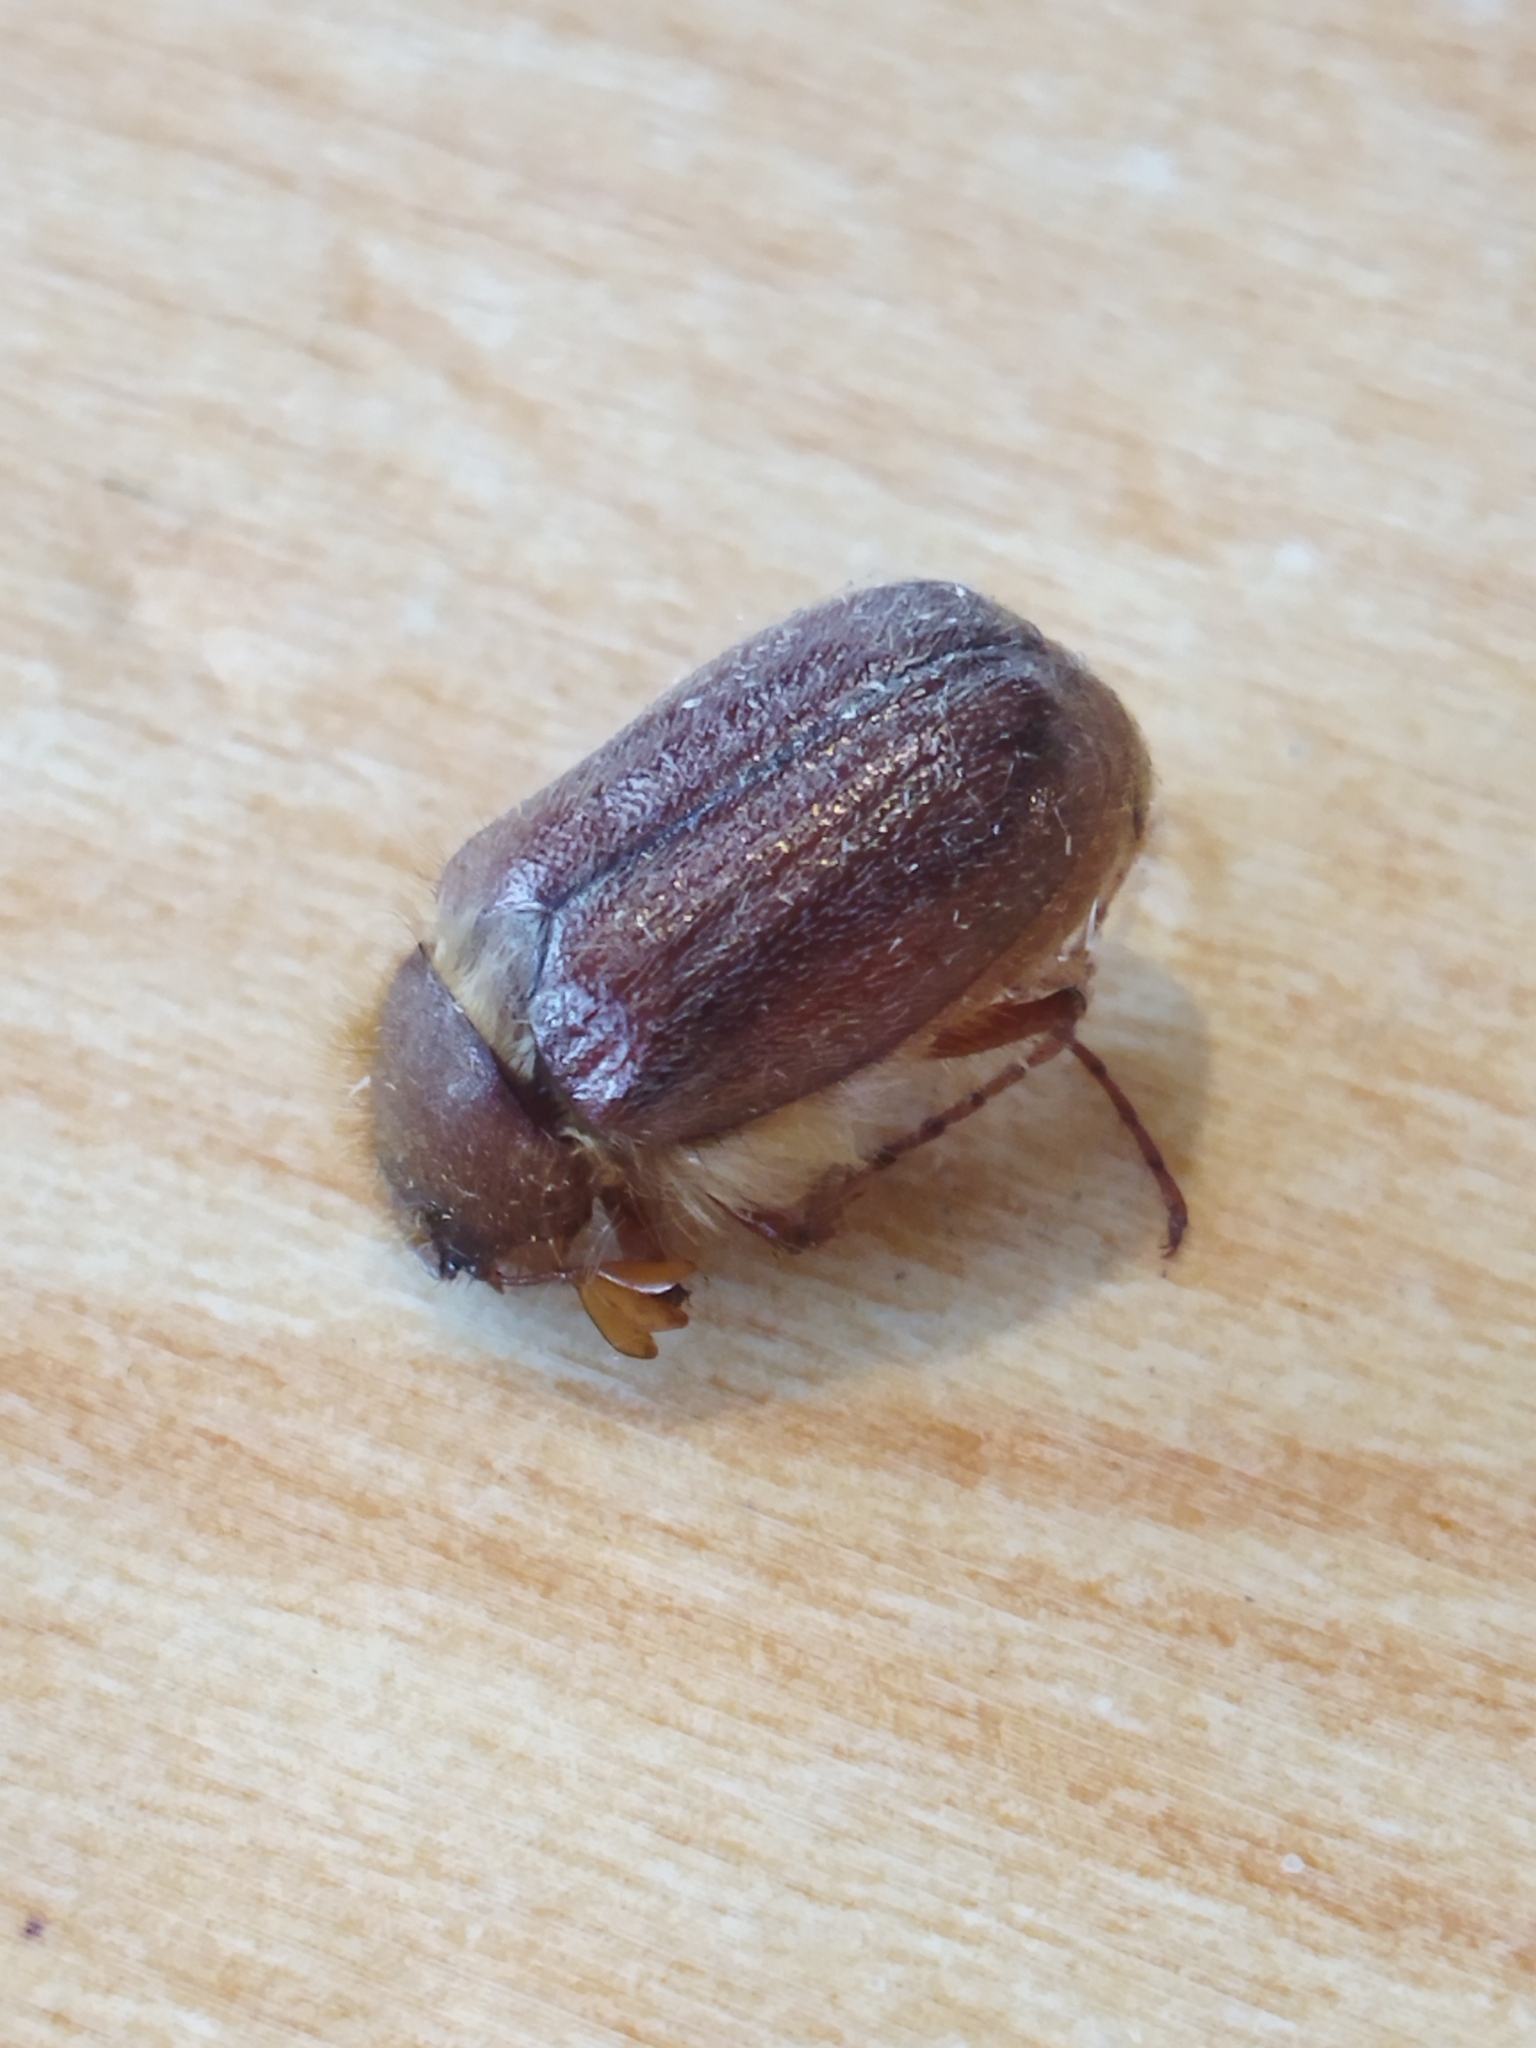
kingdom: Animalia
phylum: Arthropoda
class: Insecta
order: Coleoptera
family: Scarabaeidae
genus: Holochelus
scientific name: Holochelus aequinoctialis
